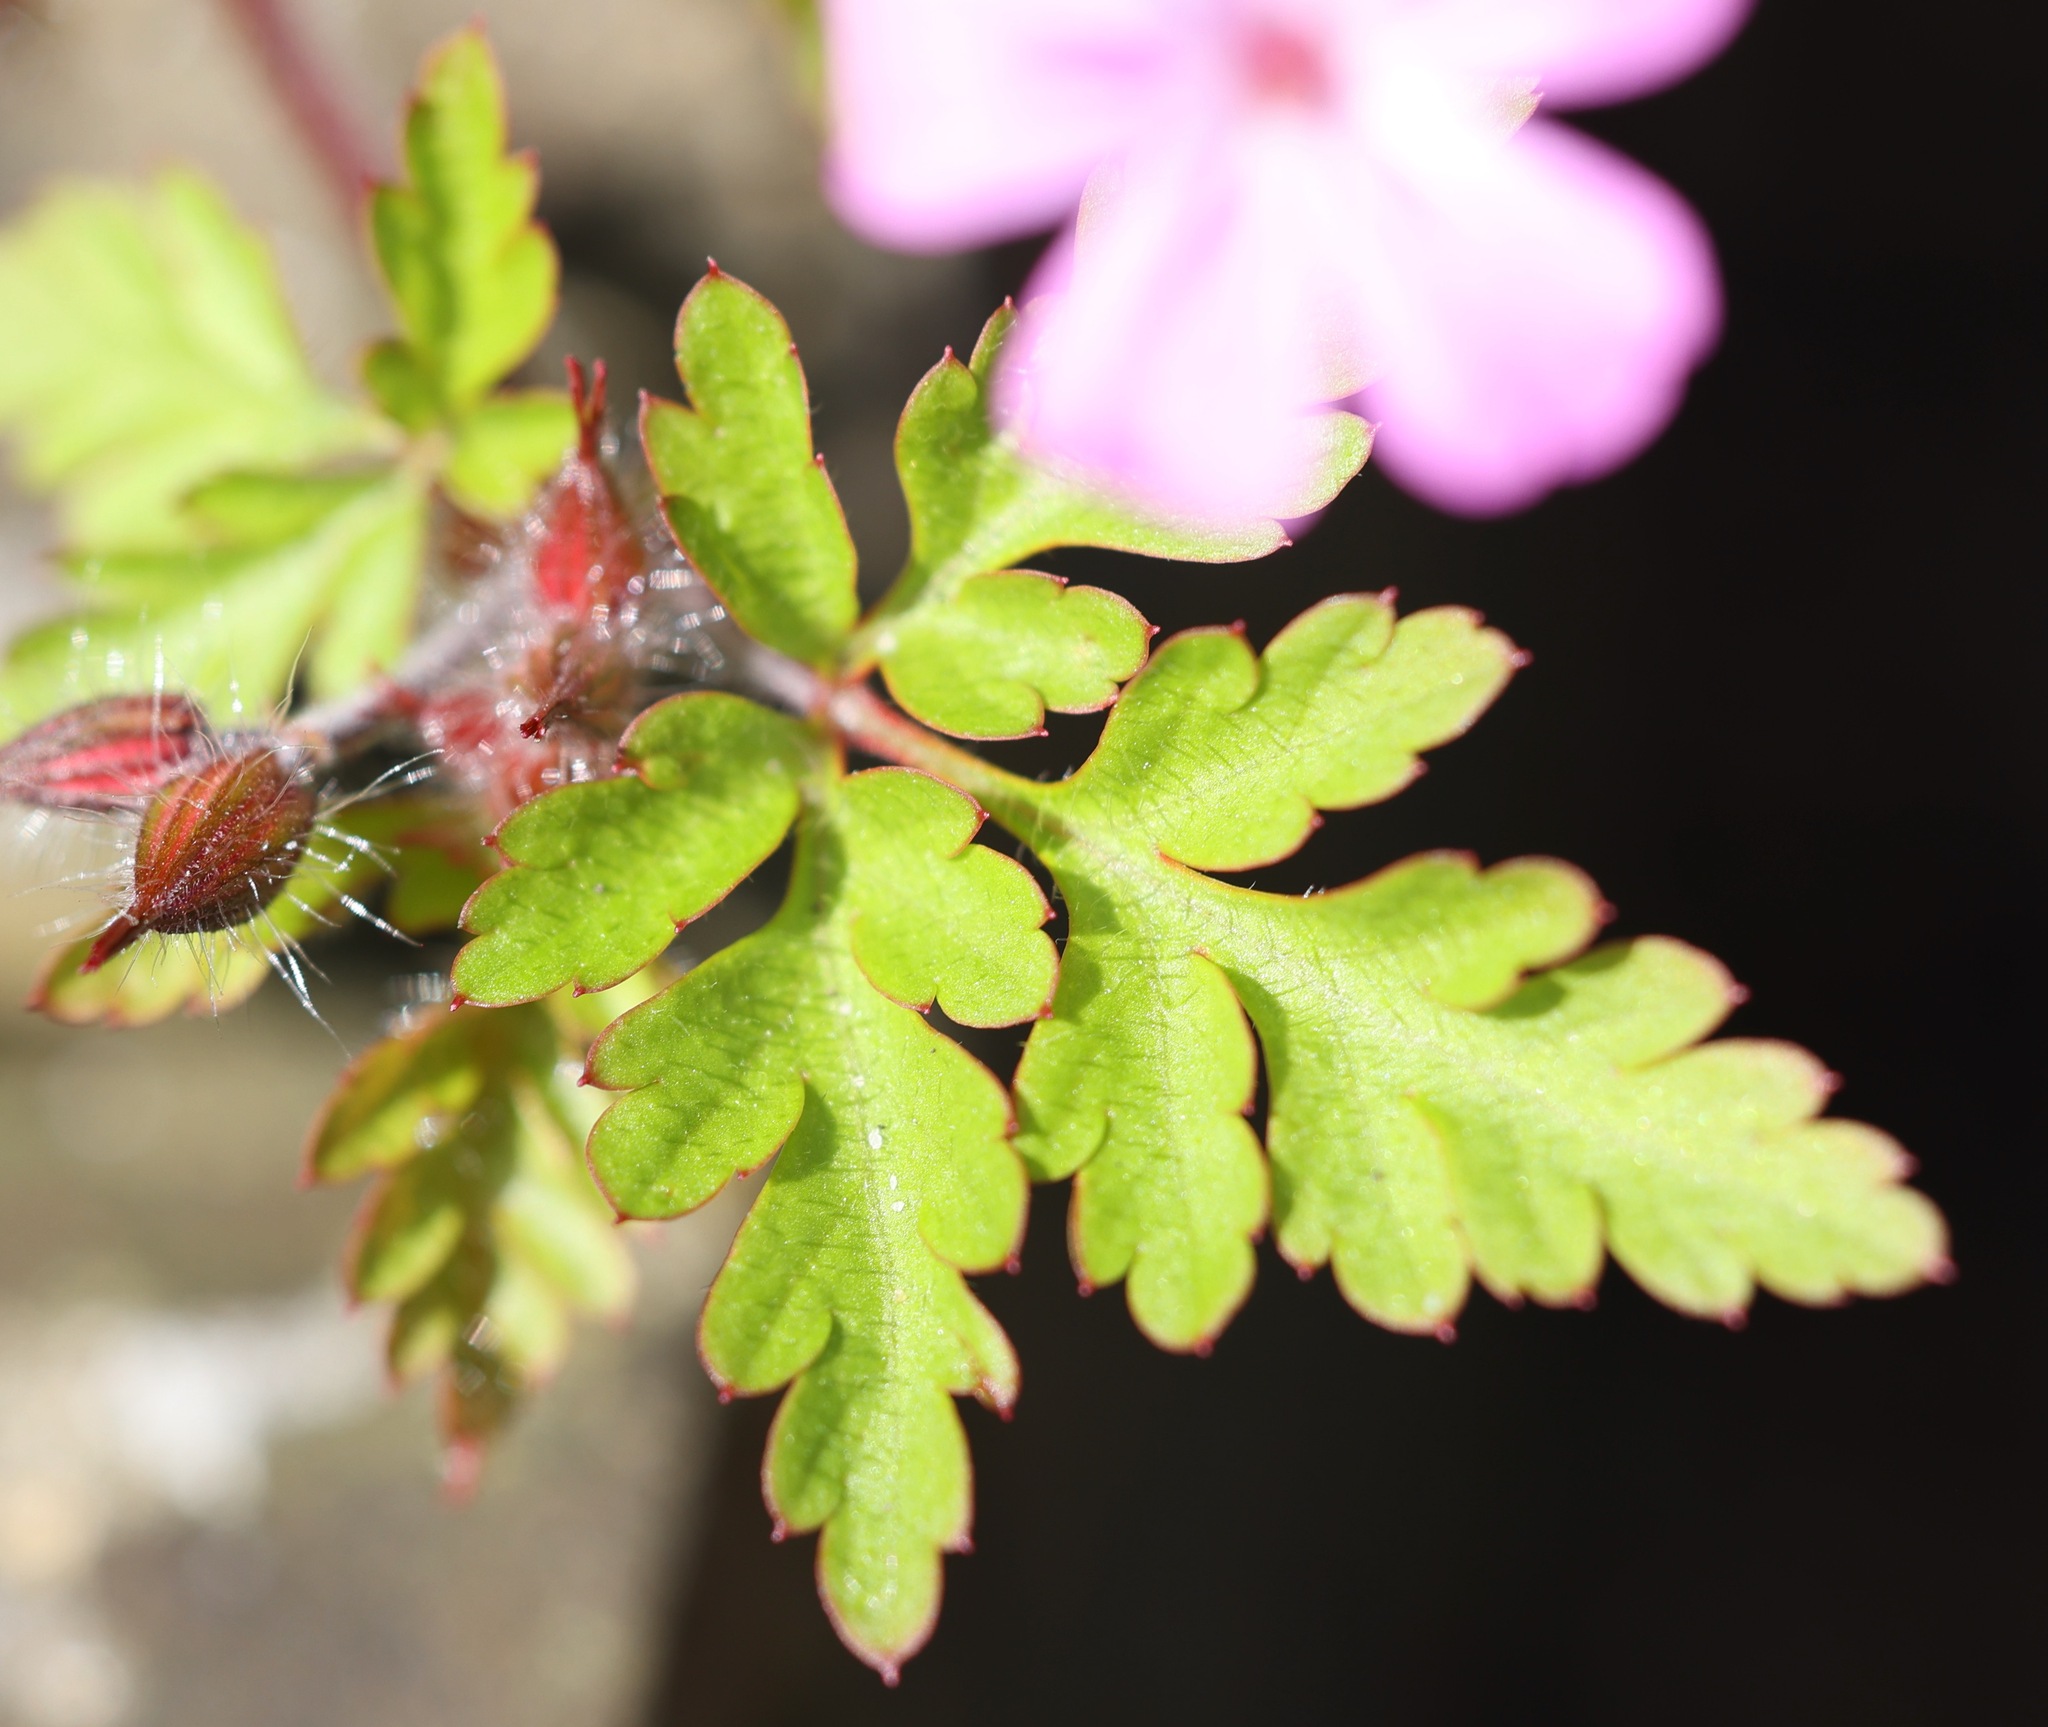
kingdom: Plantae
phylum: Tracheophyta
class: Magnoliopsida
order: Geraniales
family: Geraniaceae
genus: Geranium
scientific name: Geranium robertianum
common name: Herb-robert
